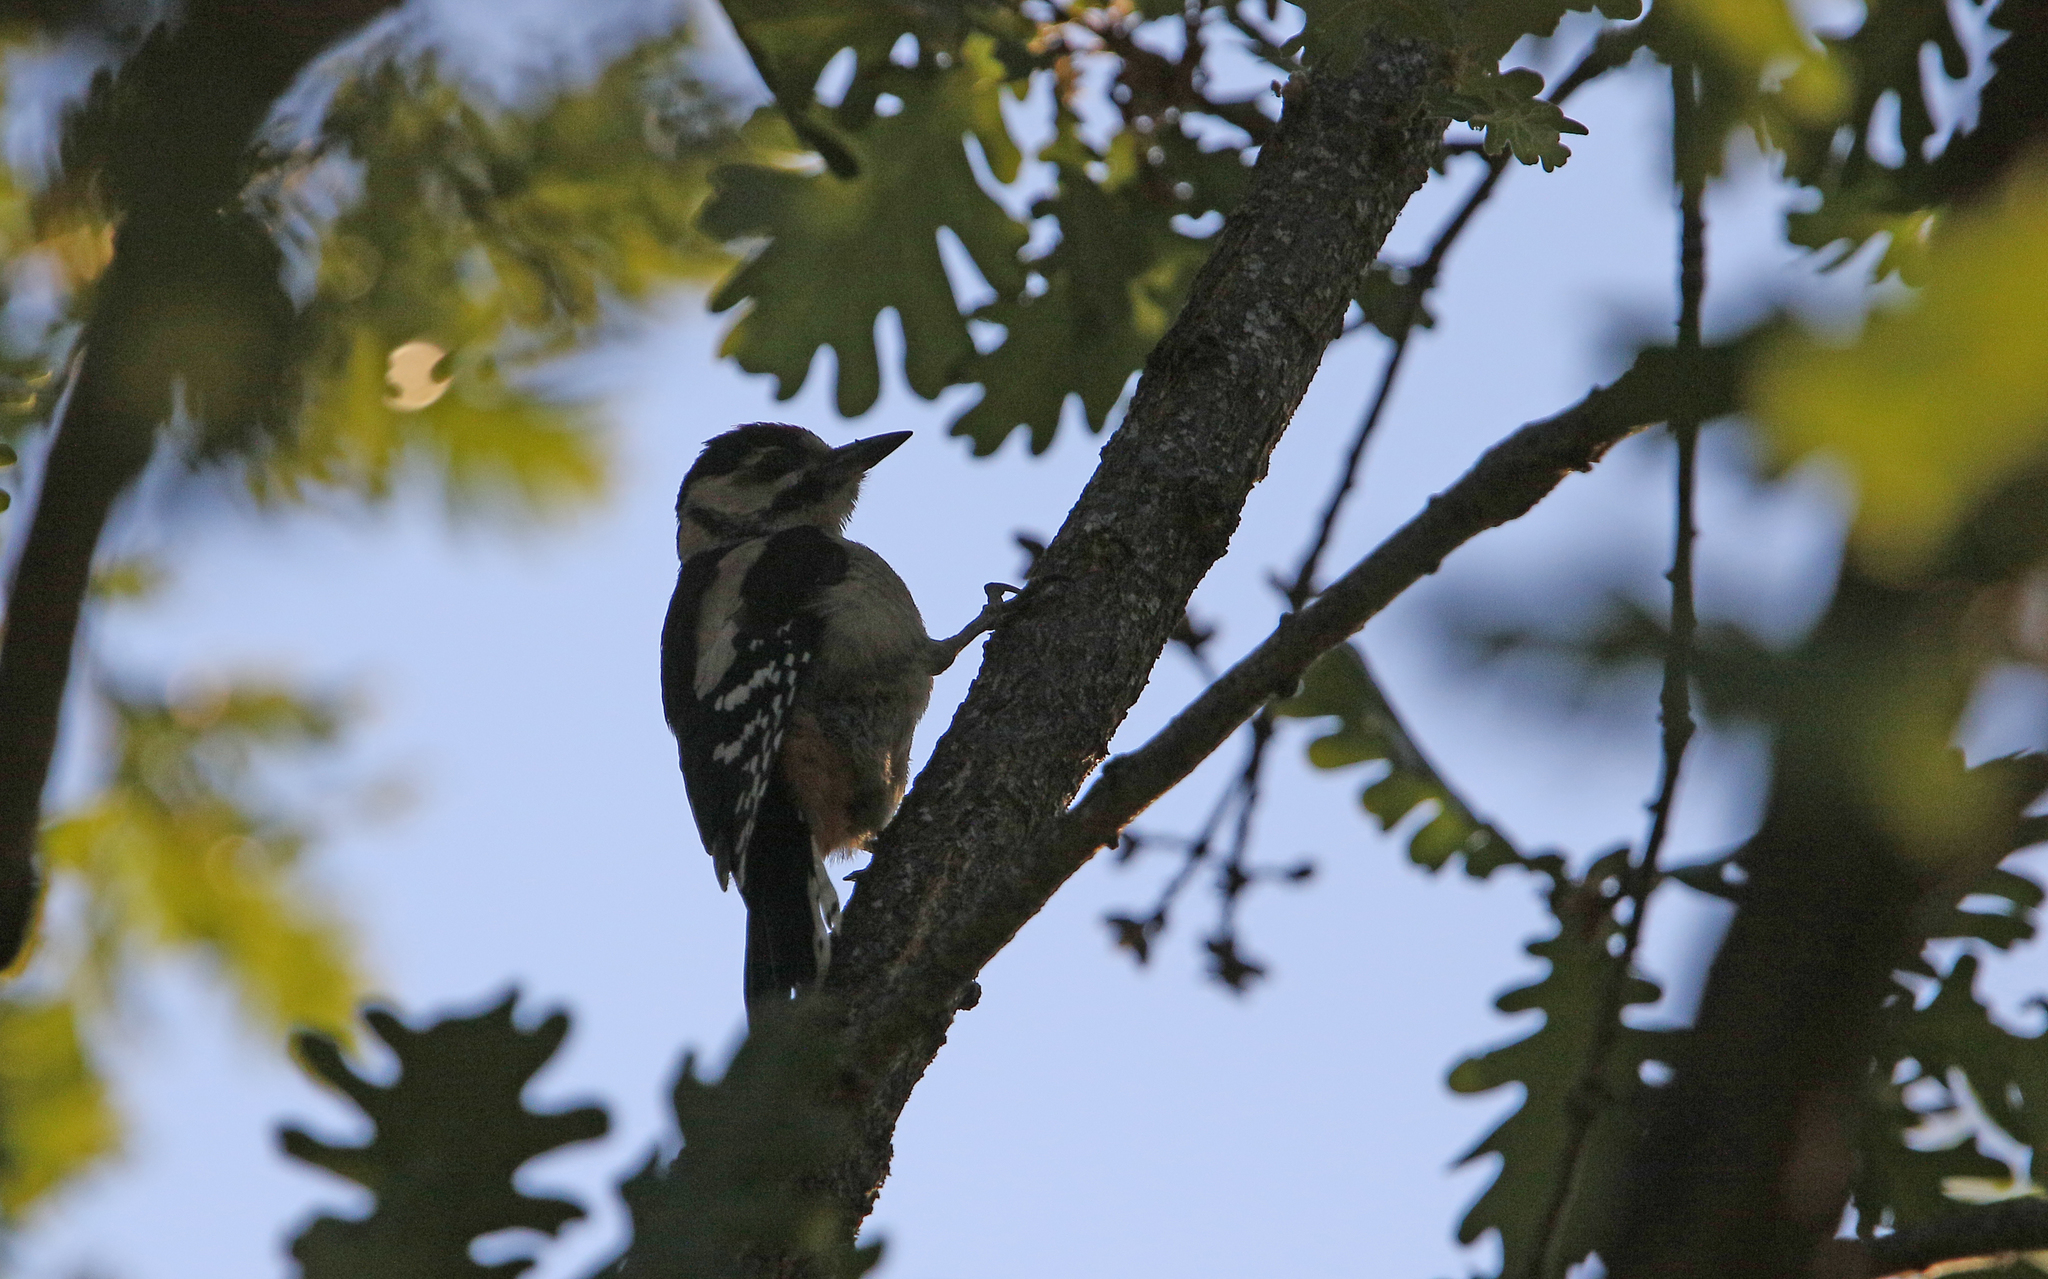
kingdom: Animalia
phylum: Chordata
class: Aves
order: Piciformes
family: Picidae
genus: Dendrocopos
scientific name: Dendrocopos major
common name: Great spotted woodpecker
